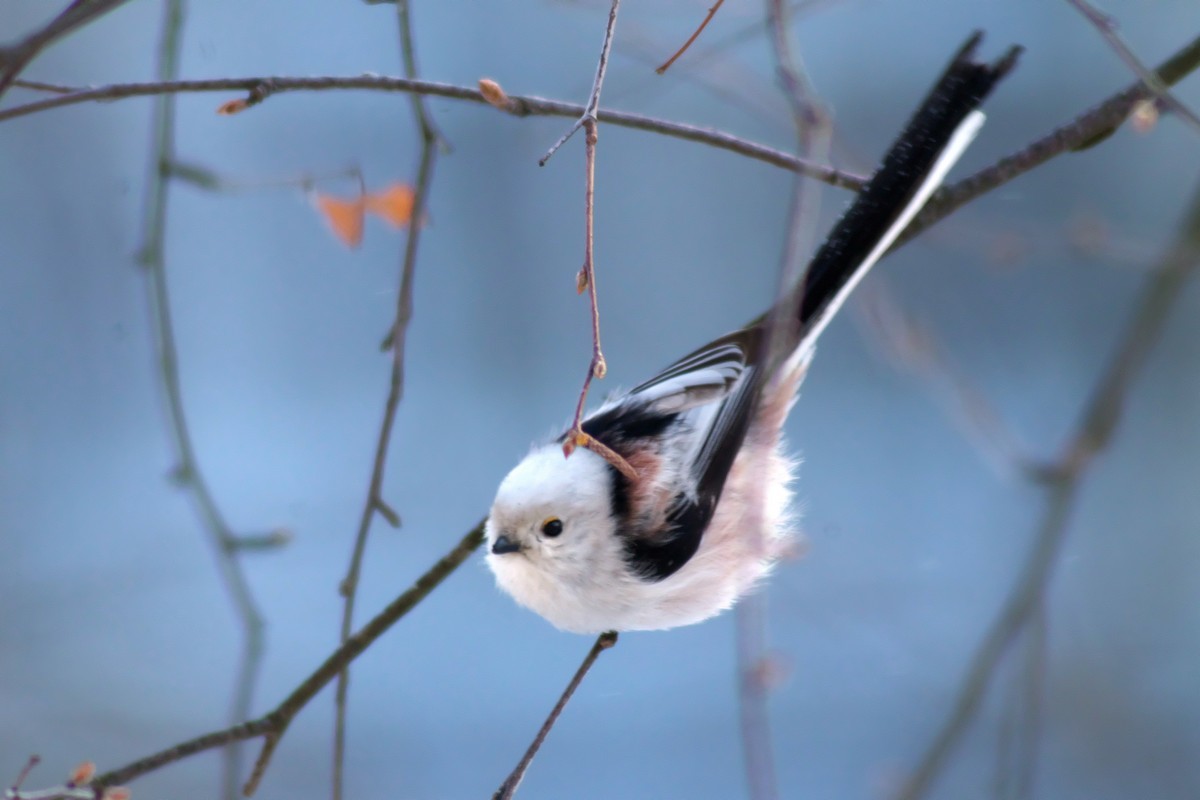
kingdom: Animalia
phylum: Chordata
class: Aves
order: Passeriformes
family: Aegithalidae
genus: Aegithalos
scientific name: Aegithalos caudatus
